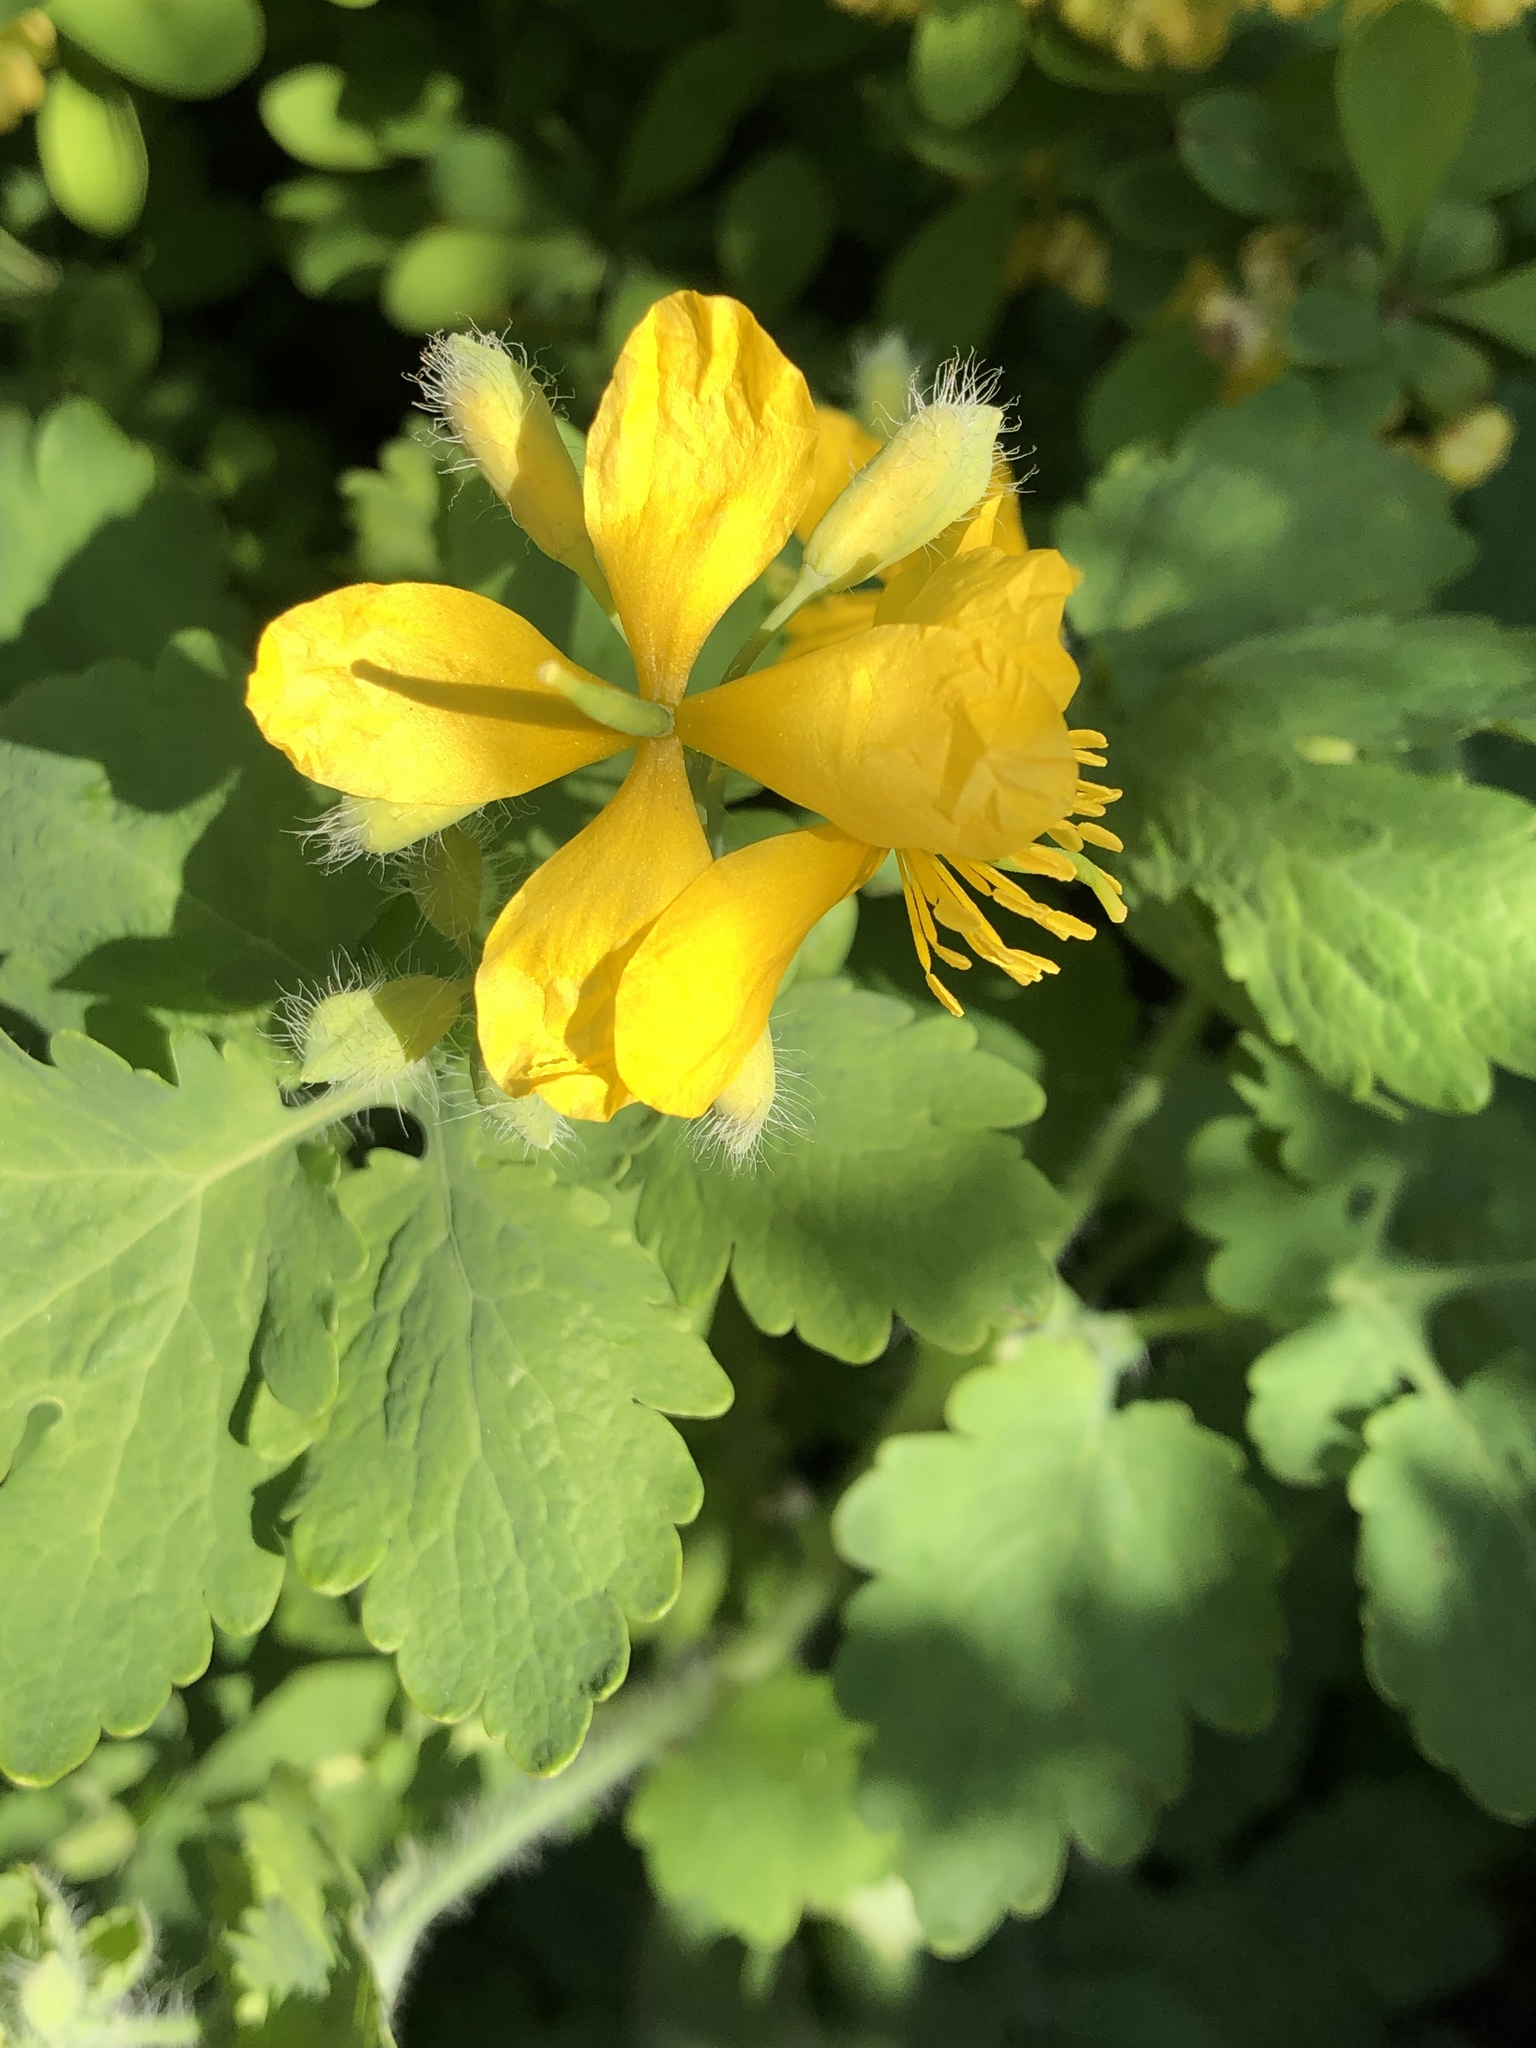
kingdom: Plantae
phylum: Tracheophyta
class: Magnoliopsida
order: Ranunculales
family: Papaveraceae
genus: Chelidonium
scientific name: Chelidonium majus
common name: Greater celandine
